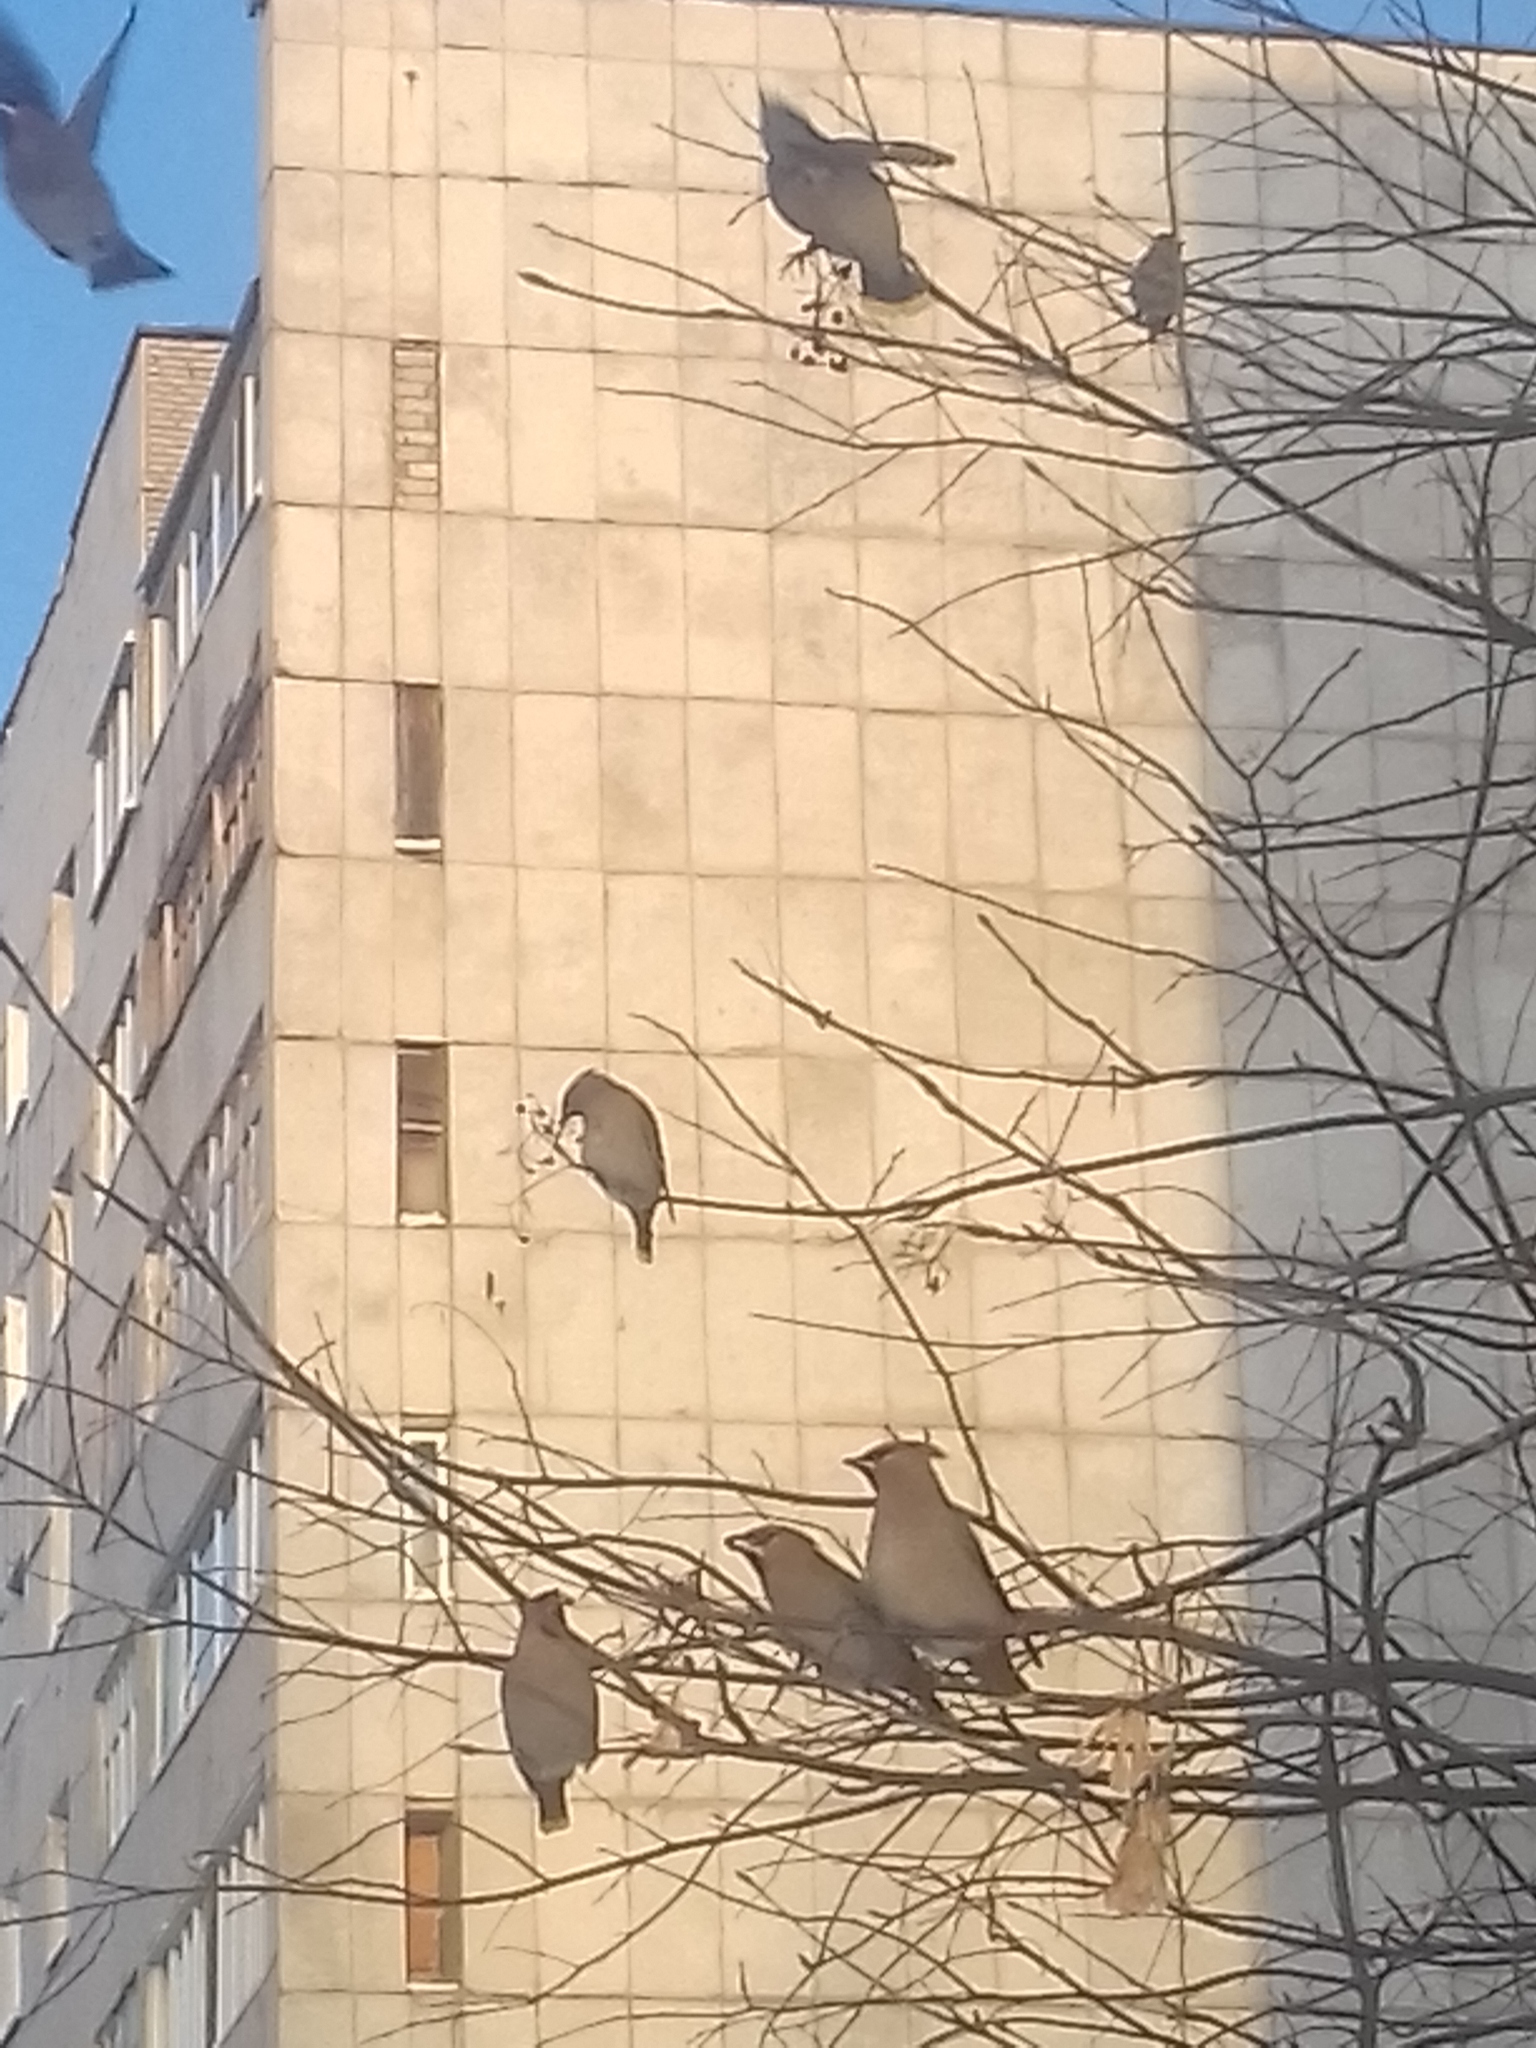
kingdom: Animalia
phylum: Chordata
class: Aves
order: Passeriformes
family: Bombycillidae
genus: Bombycilla
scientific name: Bombycilla garrulus
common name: Bohemian waxwing
